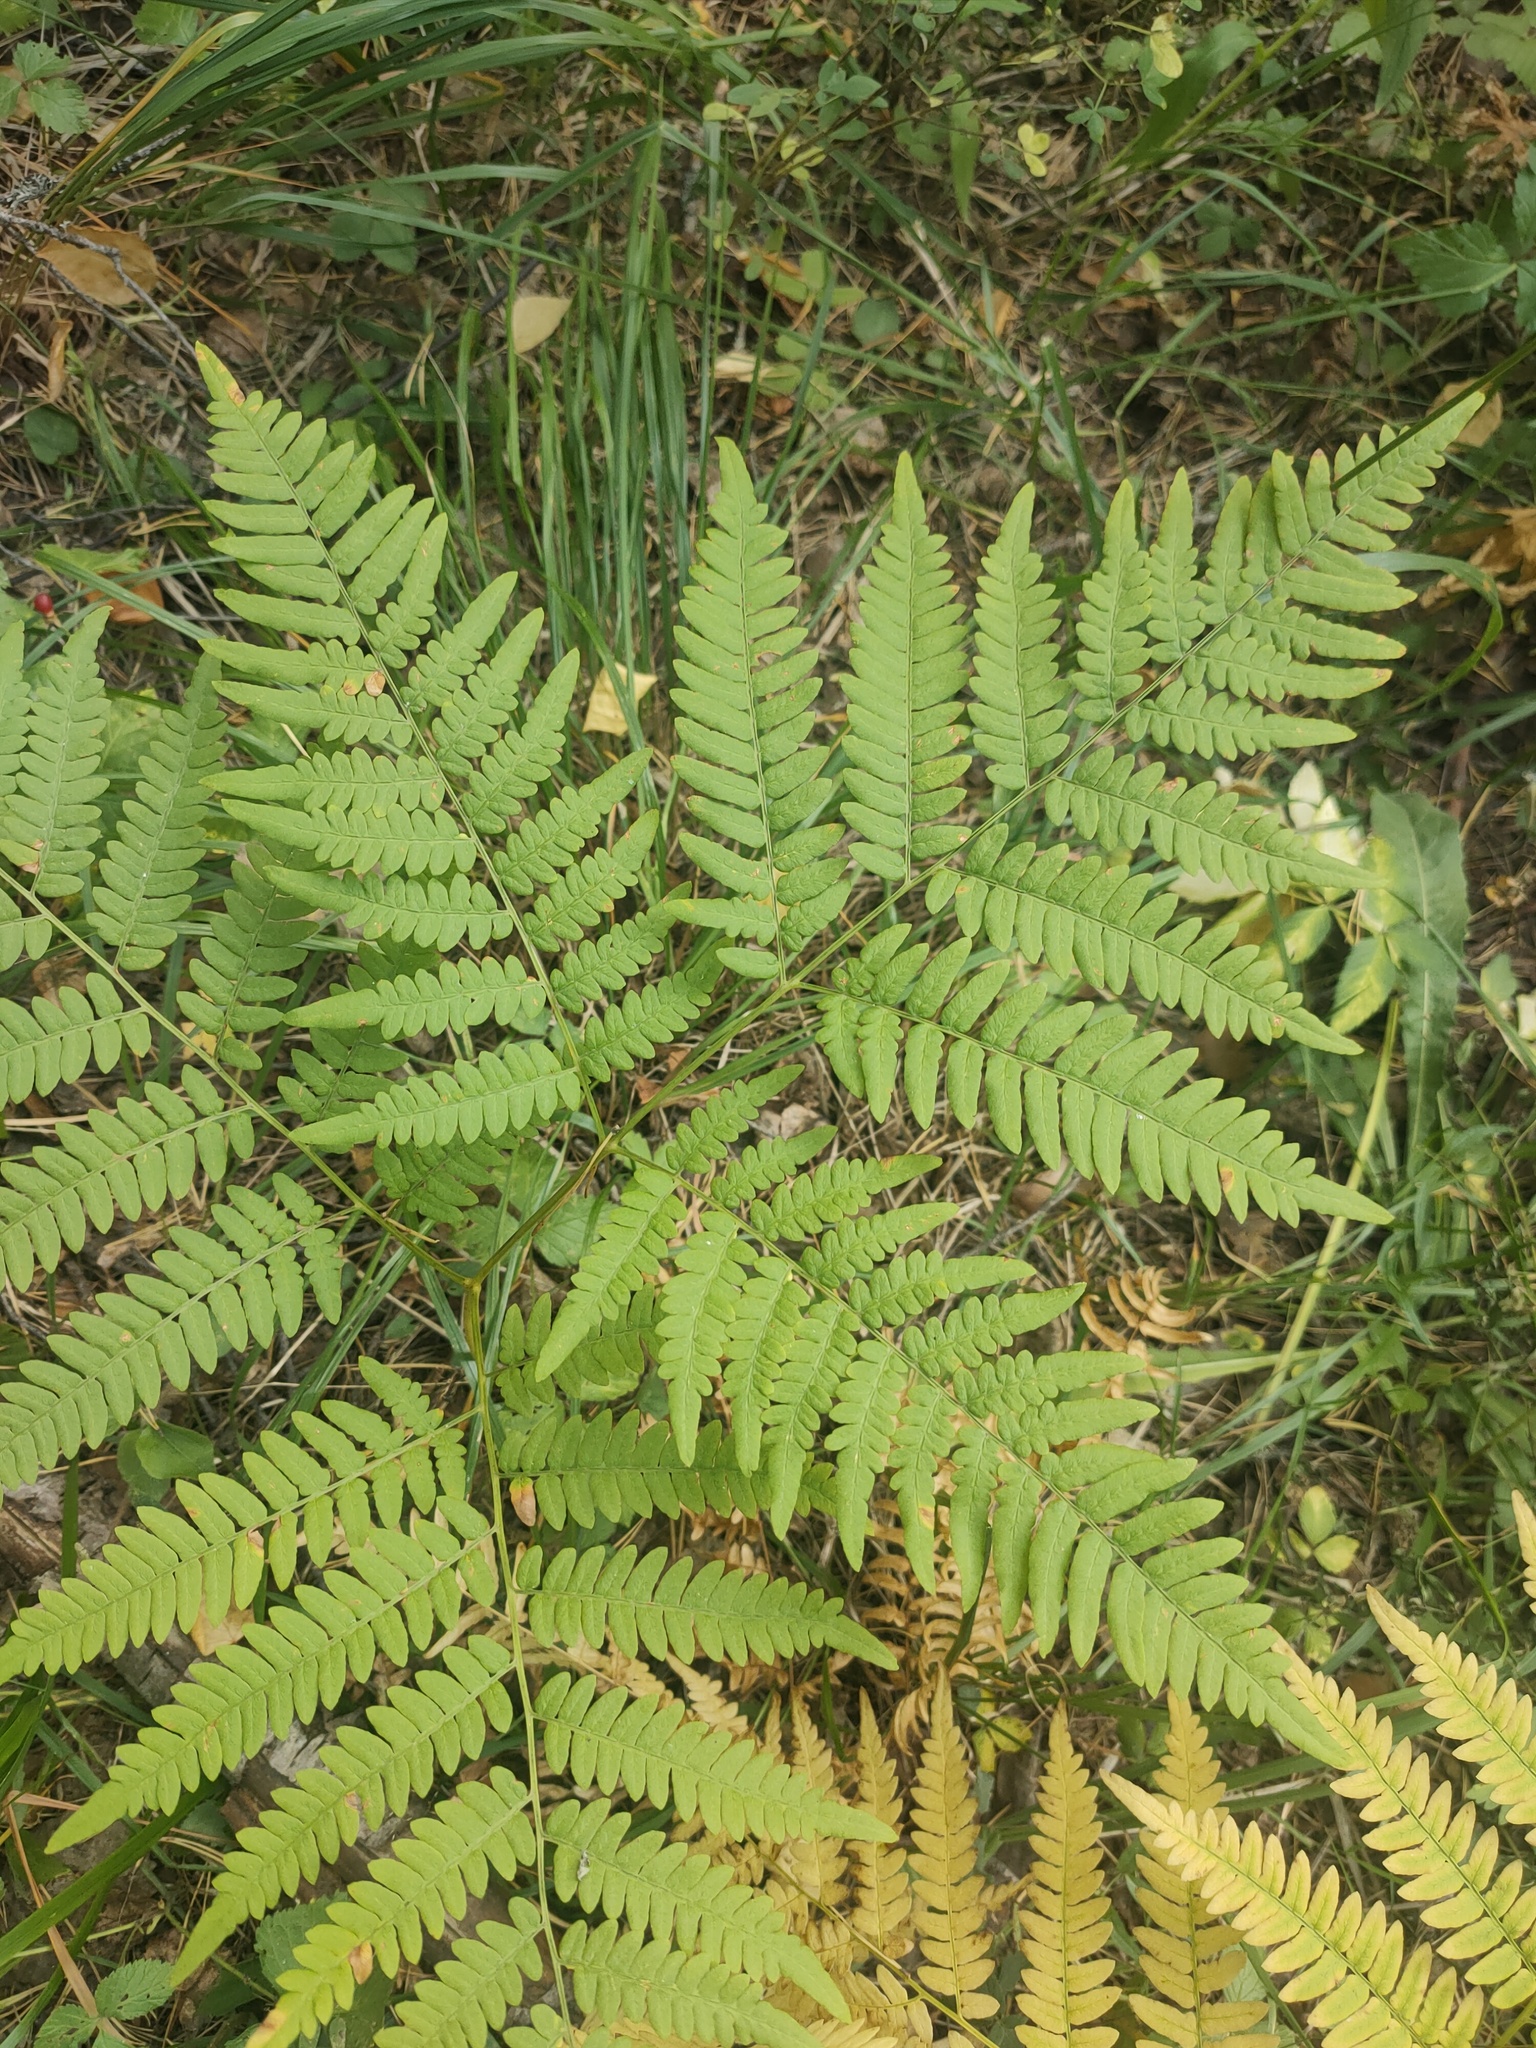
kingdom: Plantae
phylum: Tracheophyta
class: Polypodiopsida
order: Polypodiales
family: Dennstaedtiaceae
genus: Pteridium
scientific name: Pteridium aquilinum
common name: Bracken
